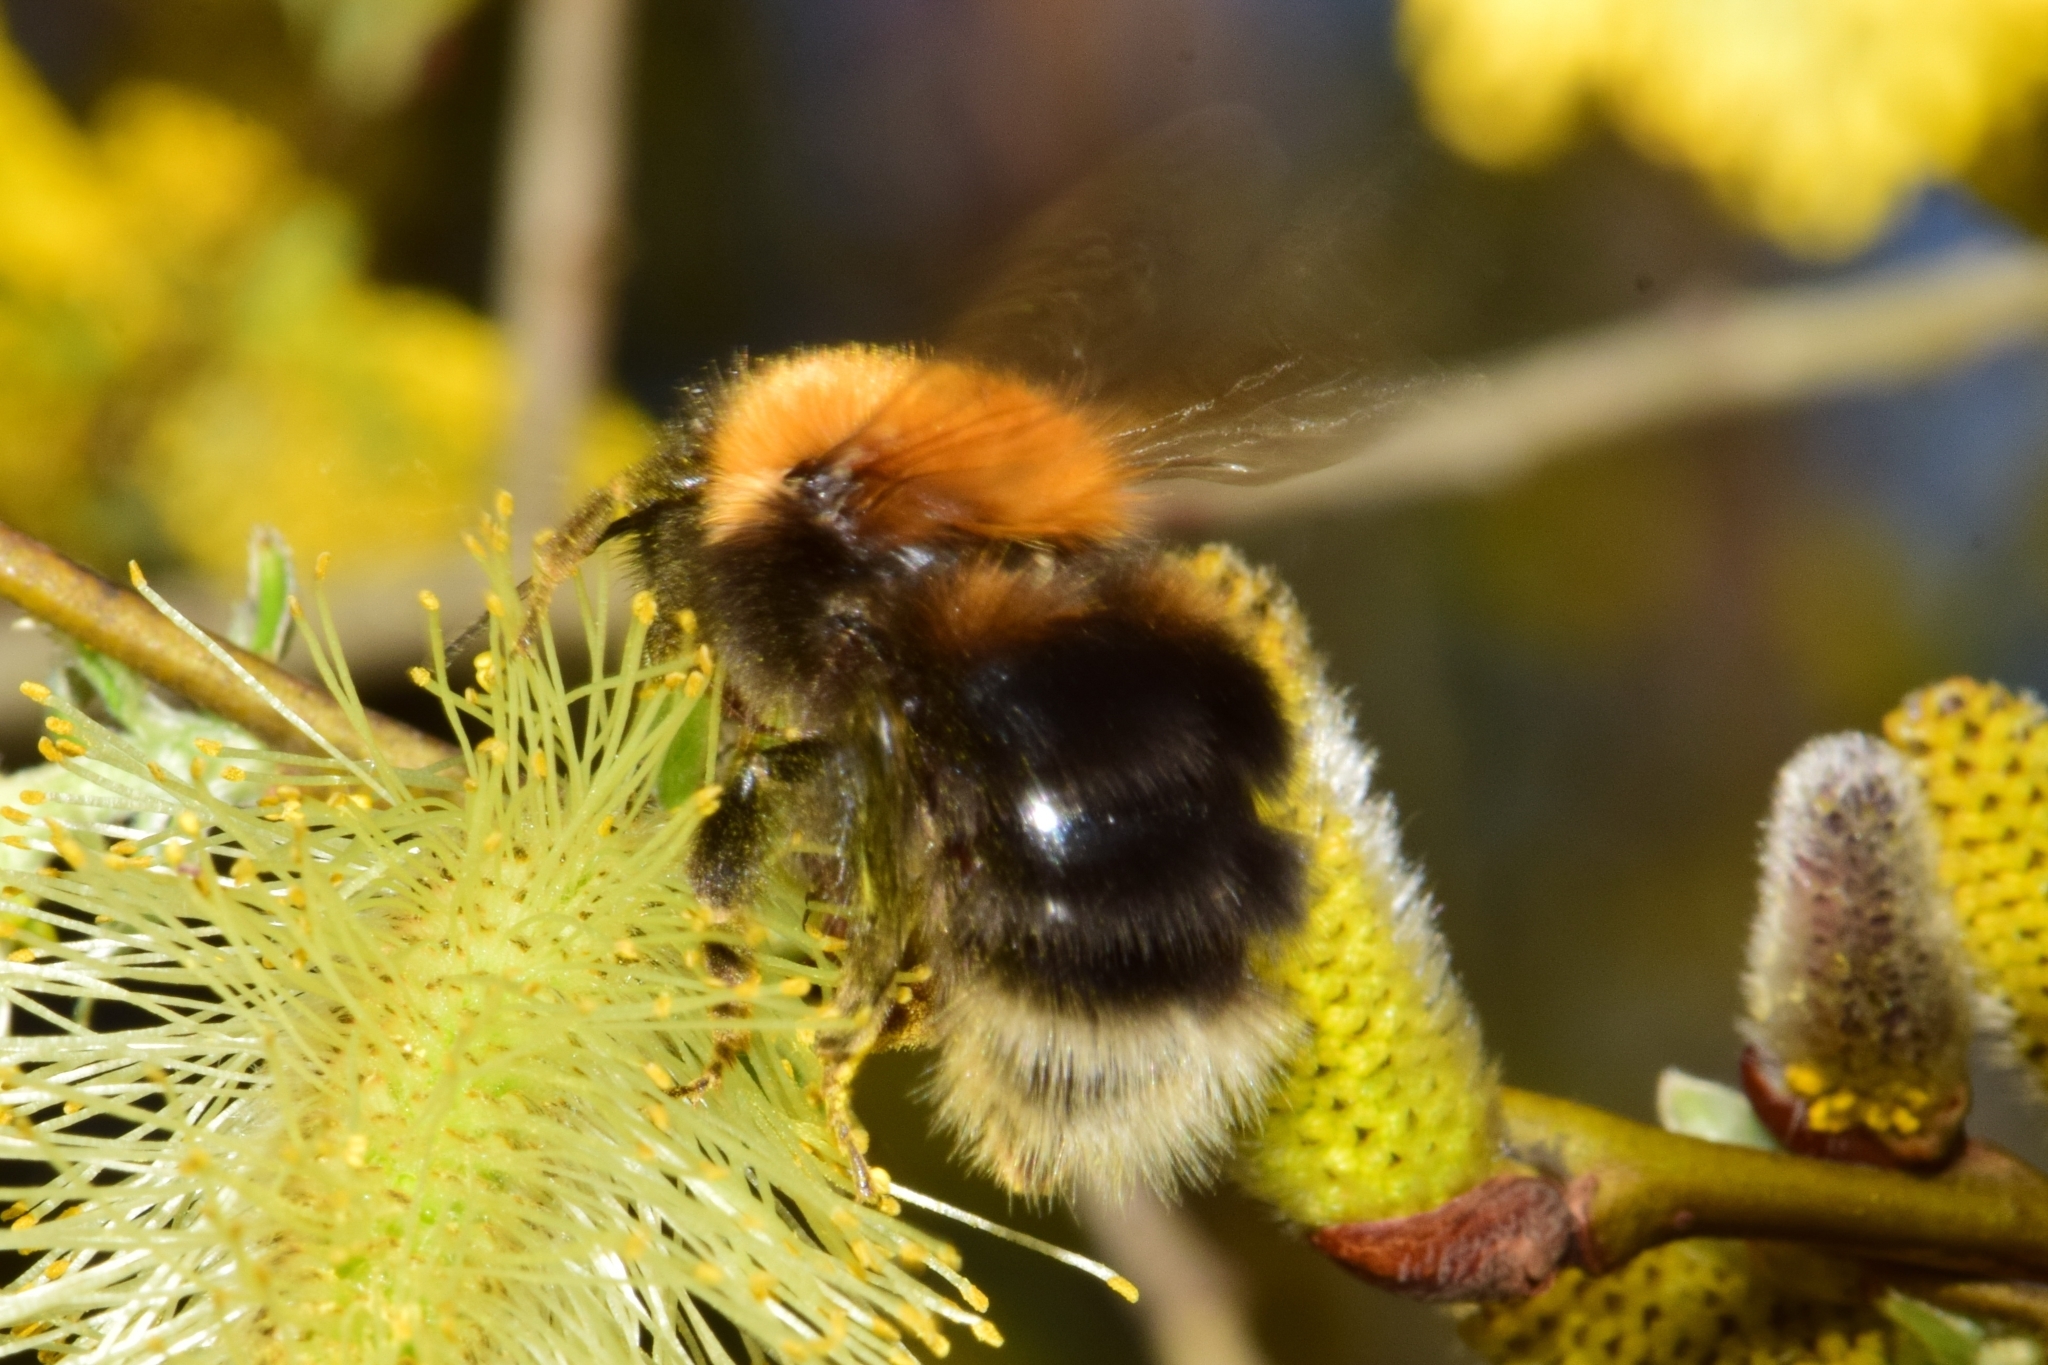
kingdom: Animalia
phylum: Arthropoda
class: Insecta
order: Hymenoptera
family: Apidae
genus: Bombus
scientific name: Bombus hypnorum
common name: New garden bumblebee
